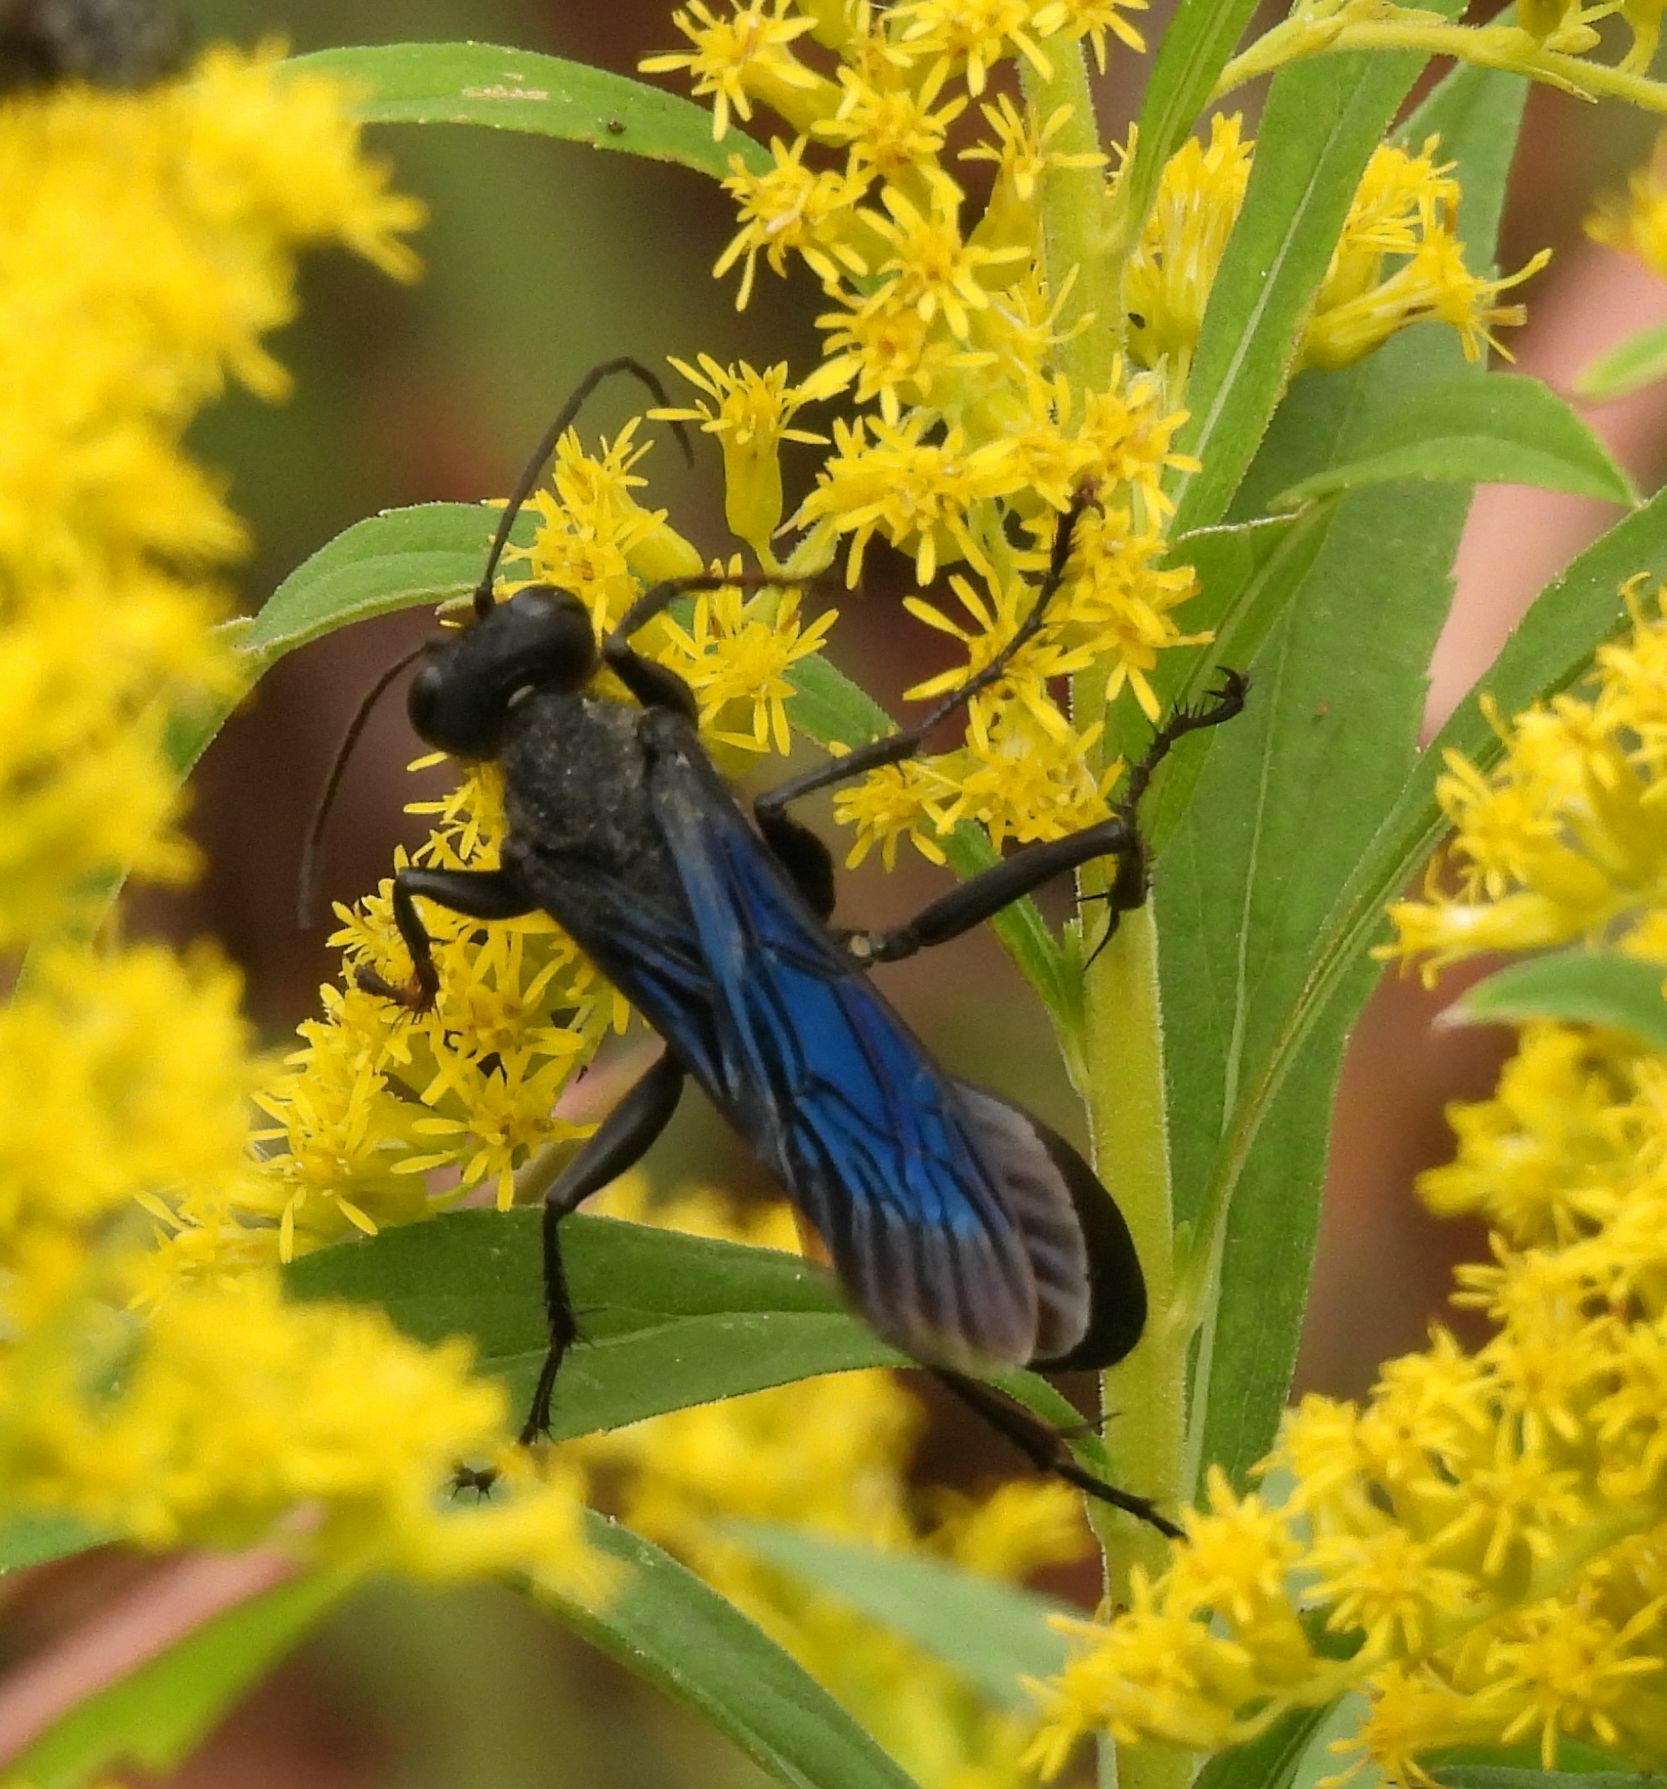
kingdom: Animalia
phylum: Arthropoda
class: Insecta
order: Hymenoptera
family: Sphecidae
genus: Sphex
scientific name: Sphex pensylvanicus
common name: Great black digger wasp
